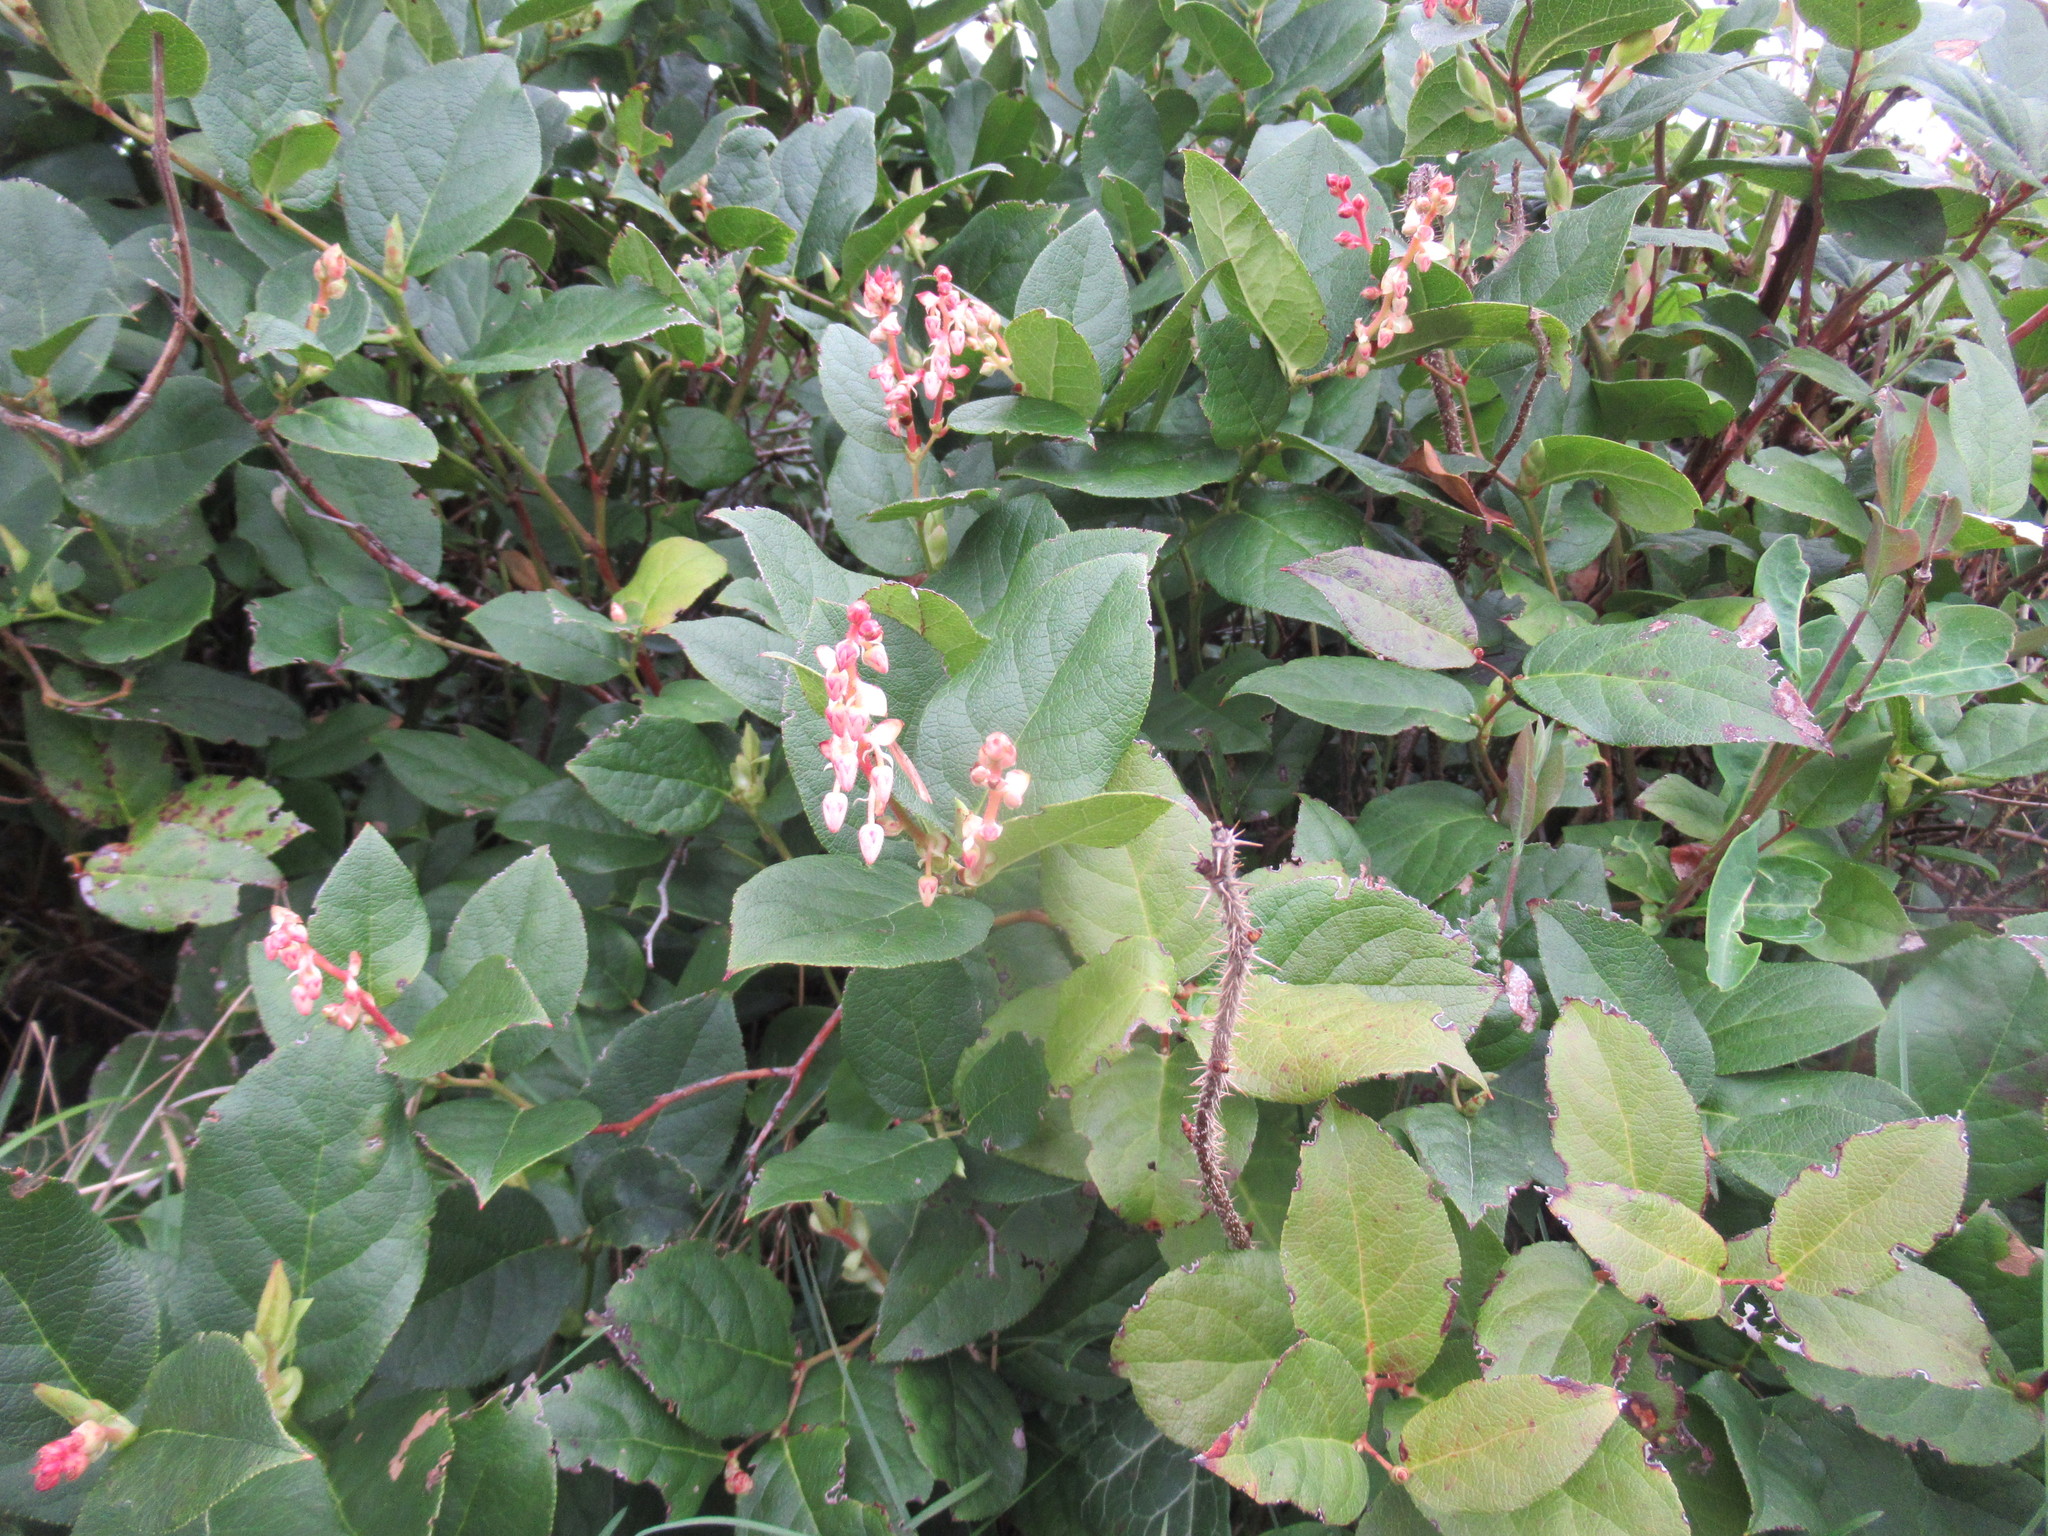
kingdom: Plantae
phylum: Tracheophyta
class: Magnoliopsida
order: Ericales
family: Ericaceae
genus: Gaultheria
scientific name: Gaultheria shallon
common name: Shallon
